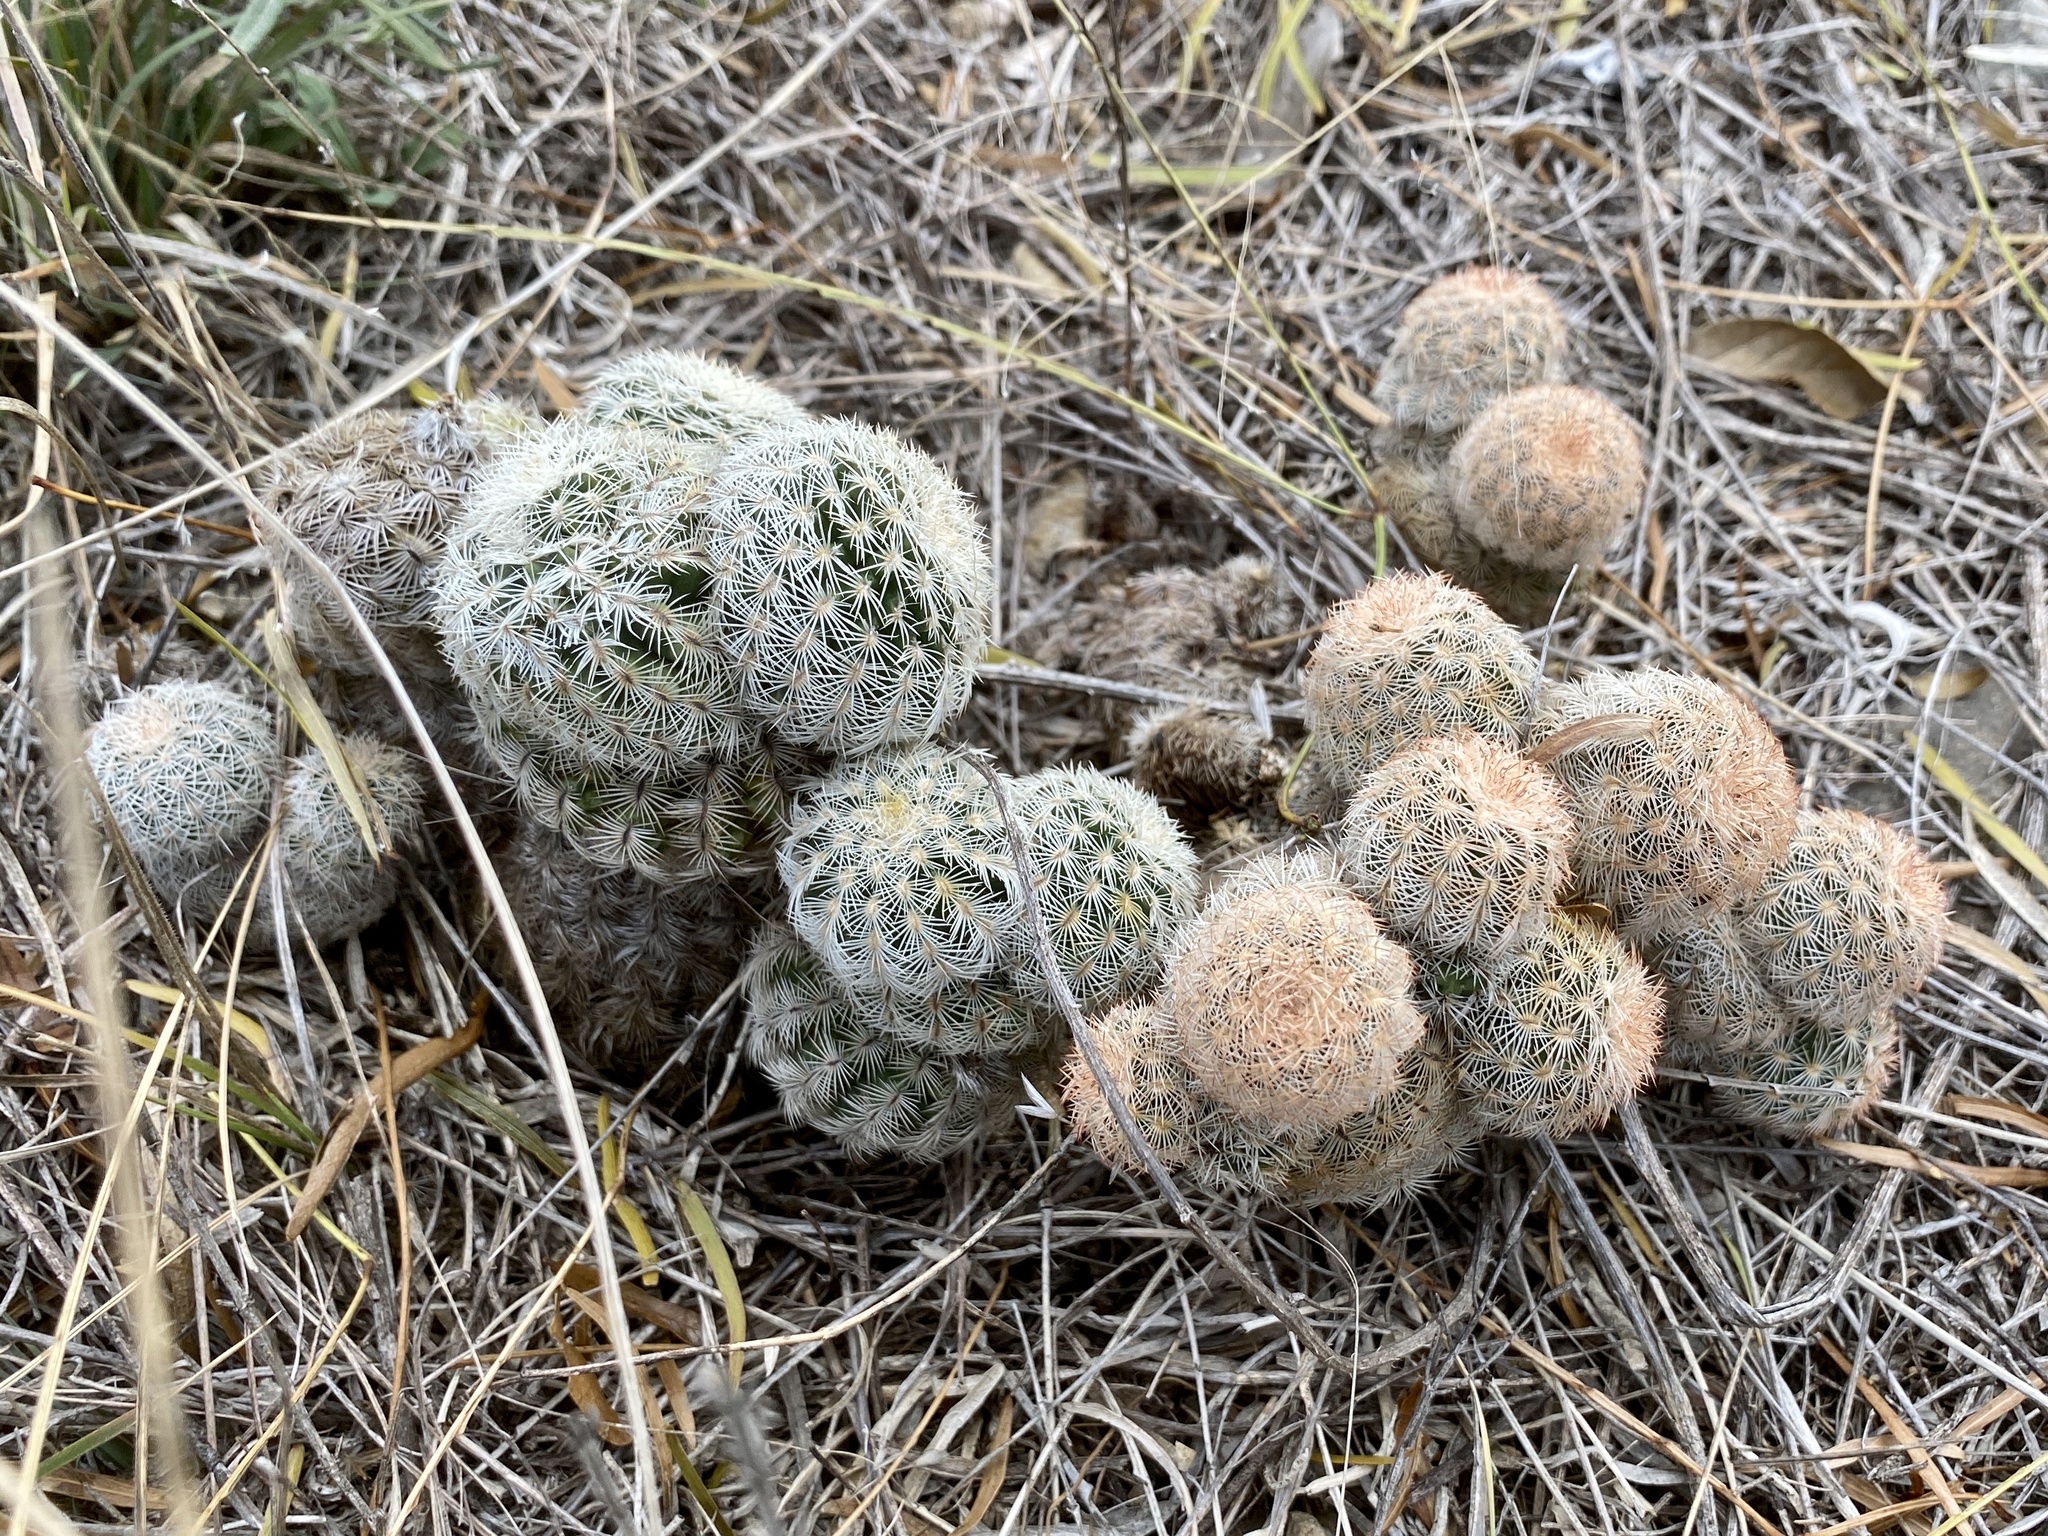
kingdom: Plantae
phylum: Tracheophyta
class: Magnoliopsida
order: Caryophyllales
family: Cactaceae
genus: Echinocereus
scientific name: Echinocereus reichenbachii
